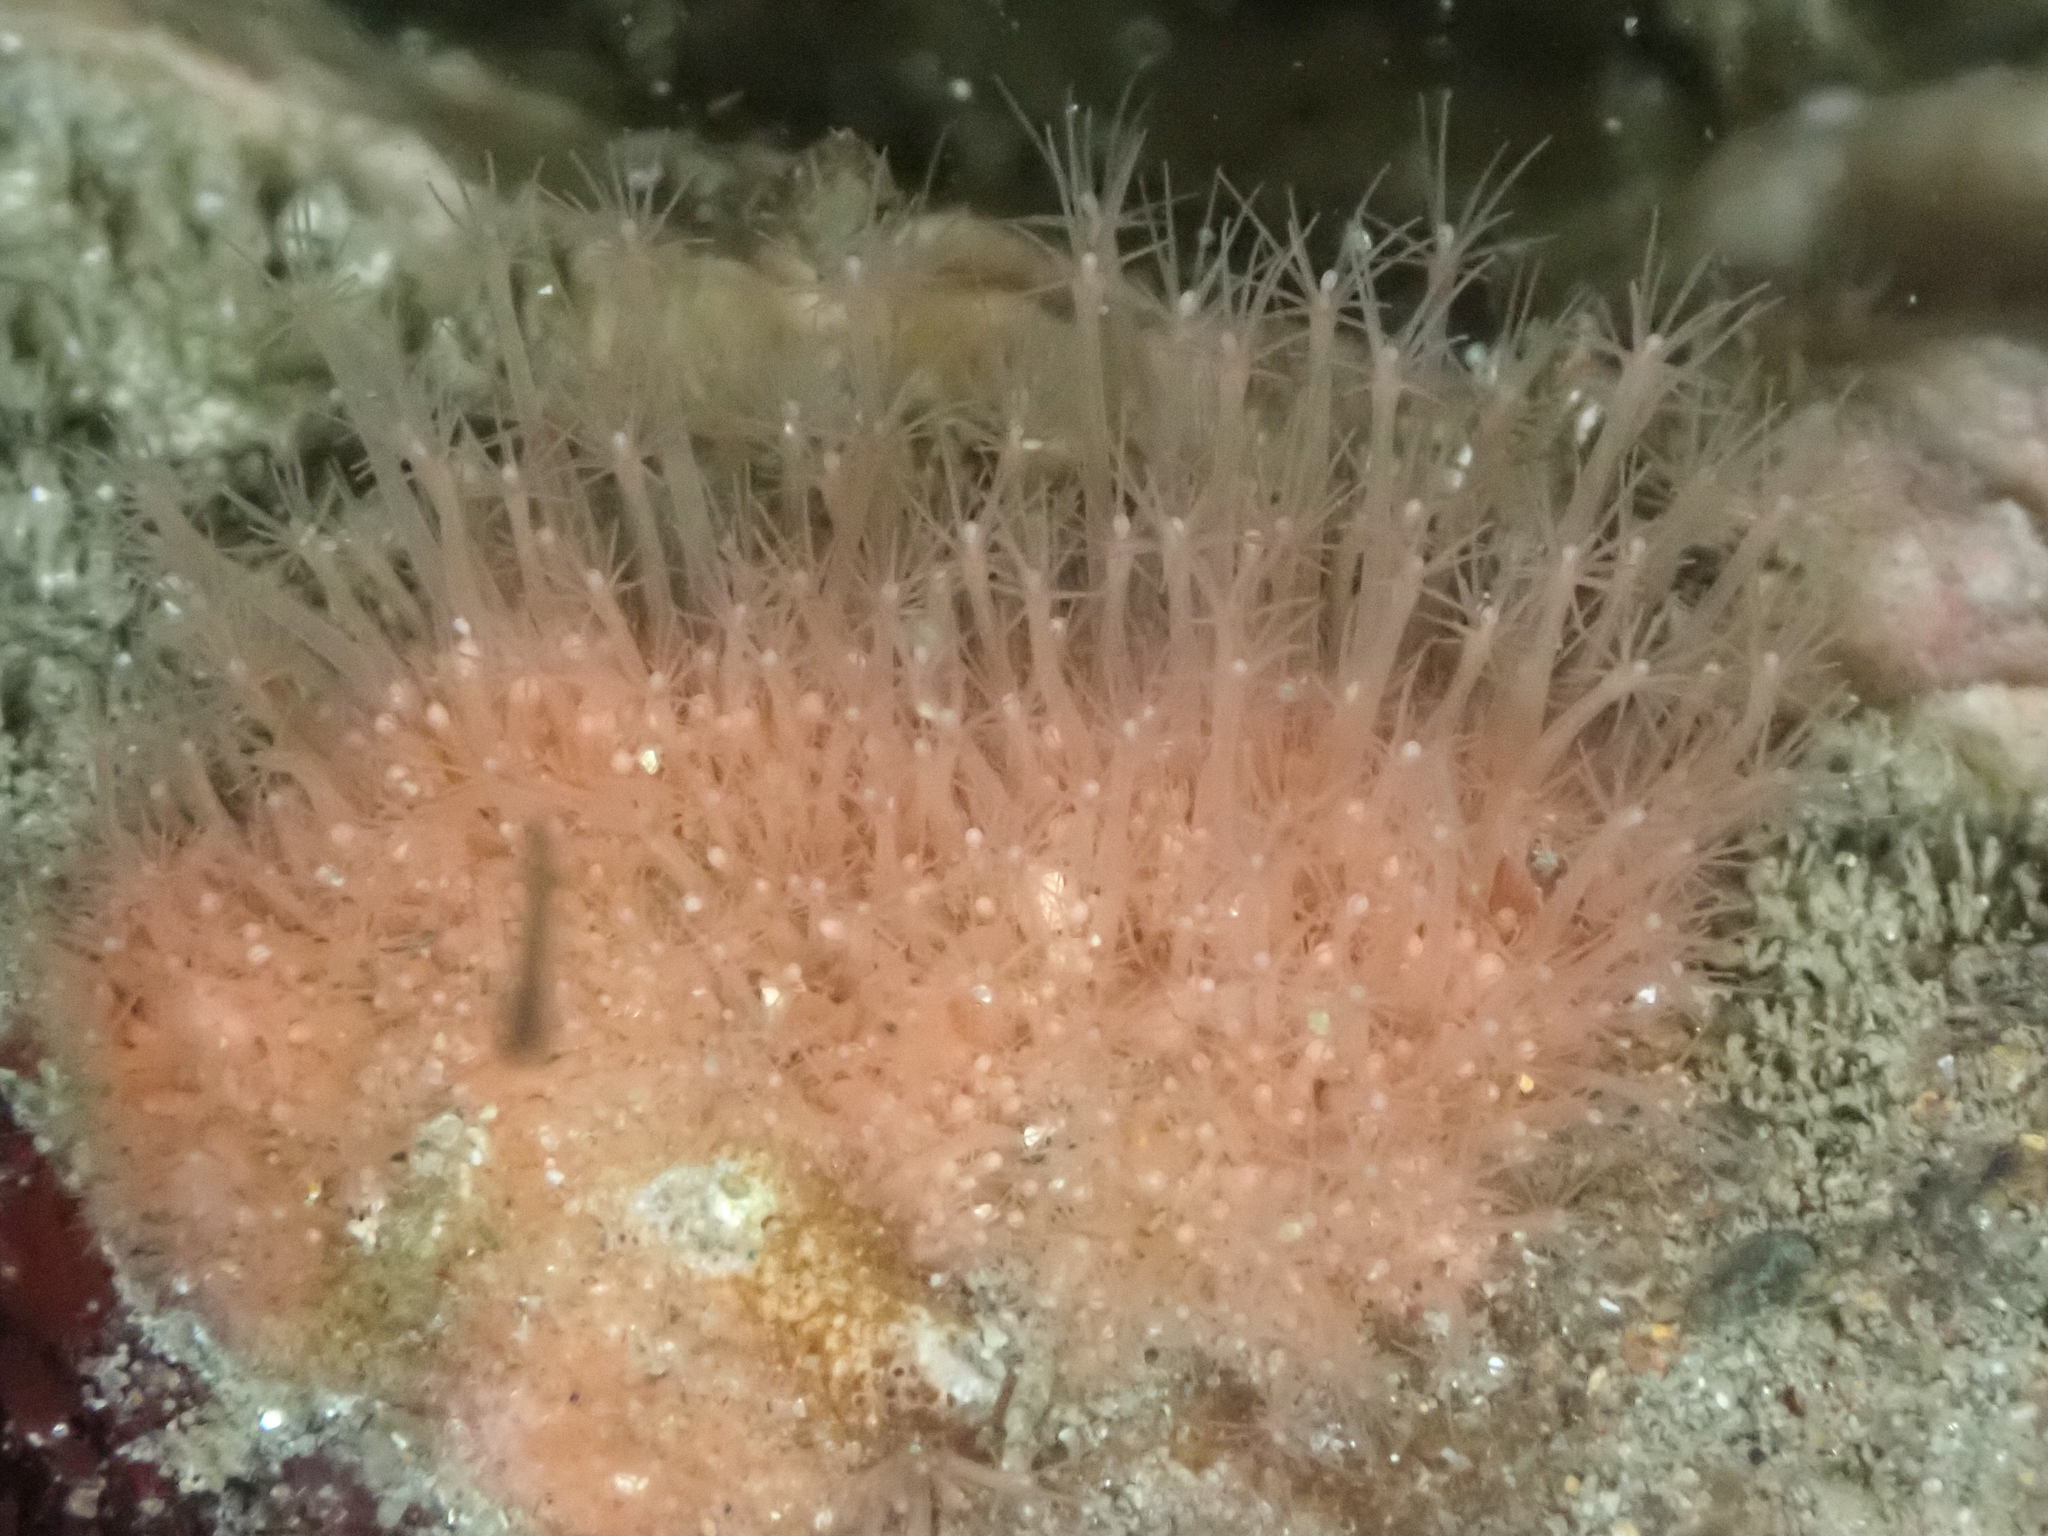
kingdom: Animalia
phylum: Cnidaria
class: Hydrozoa
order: Anthoathecata
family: Hydractiniidae
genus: Schuchertinia
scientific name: Schuchertinia milleri
